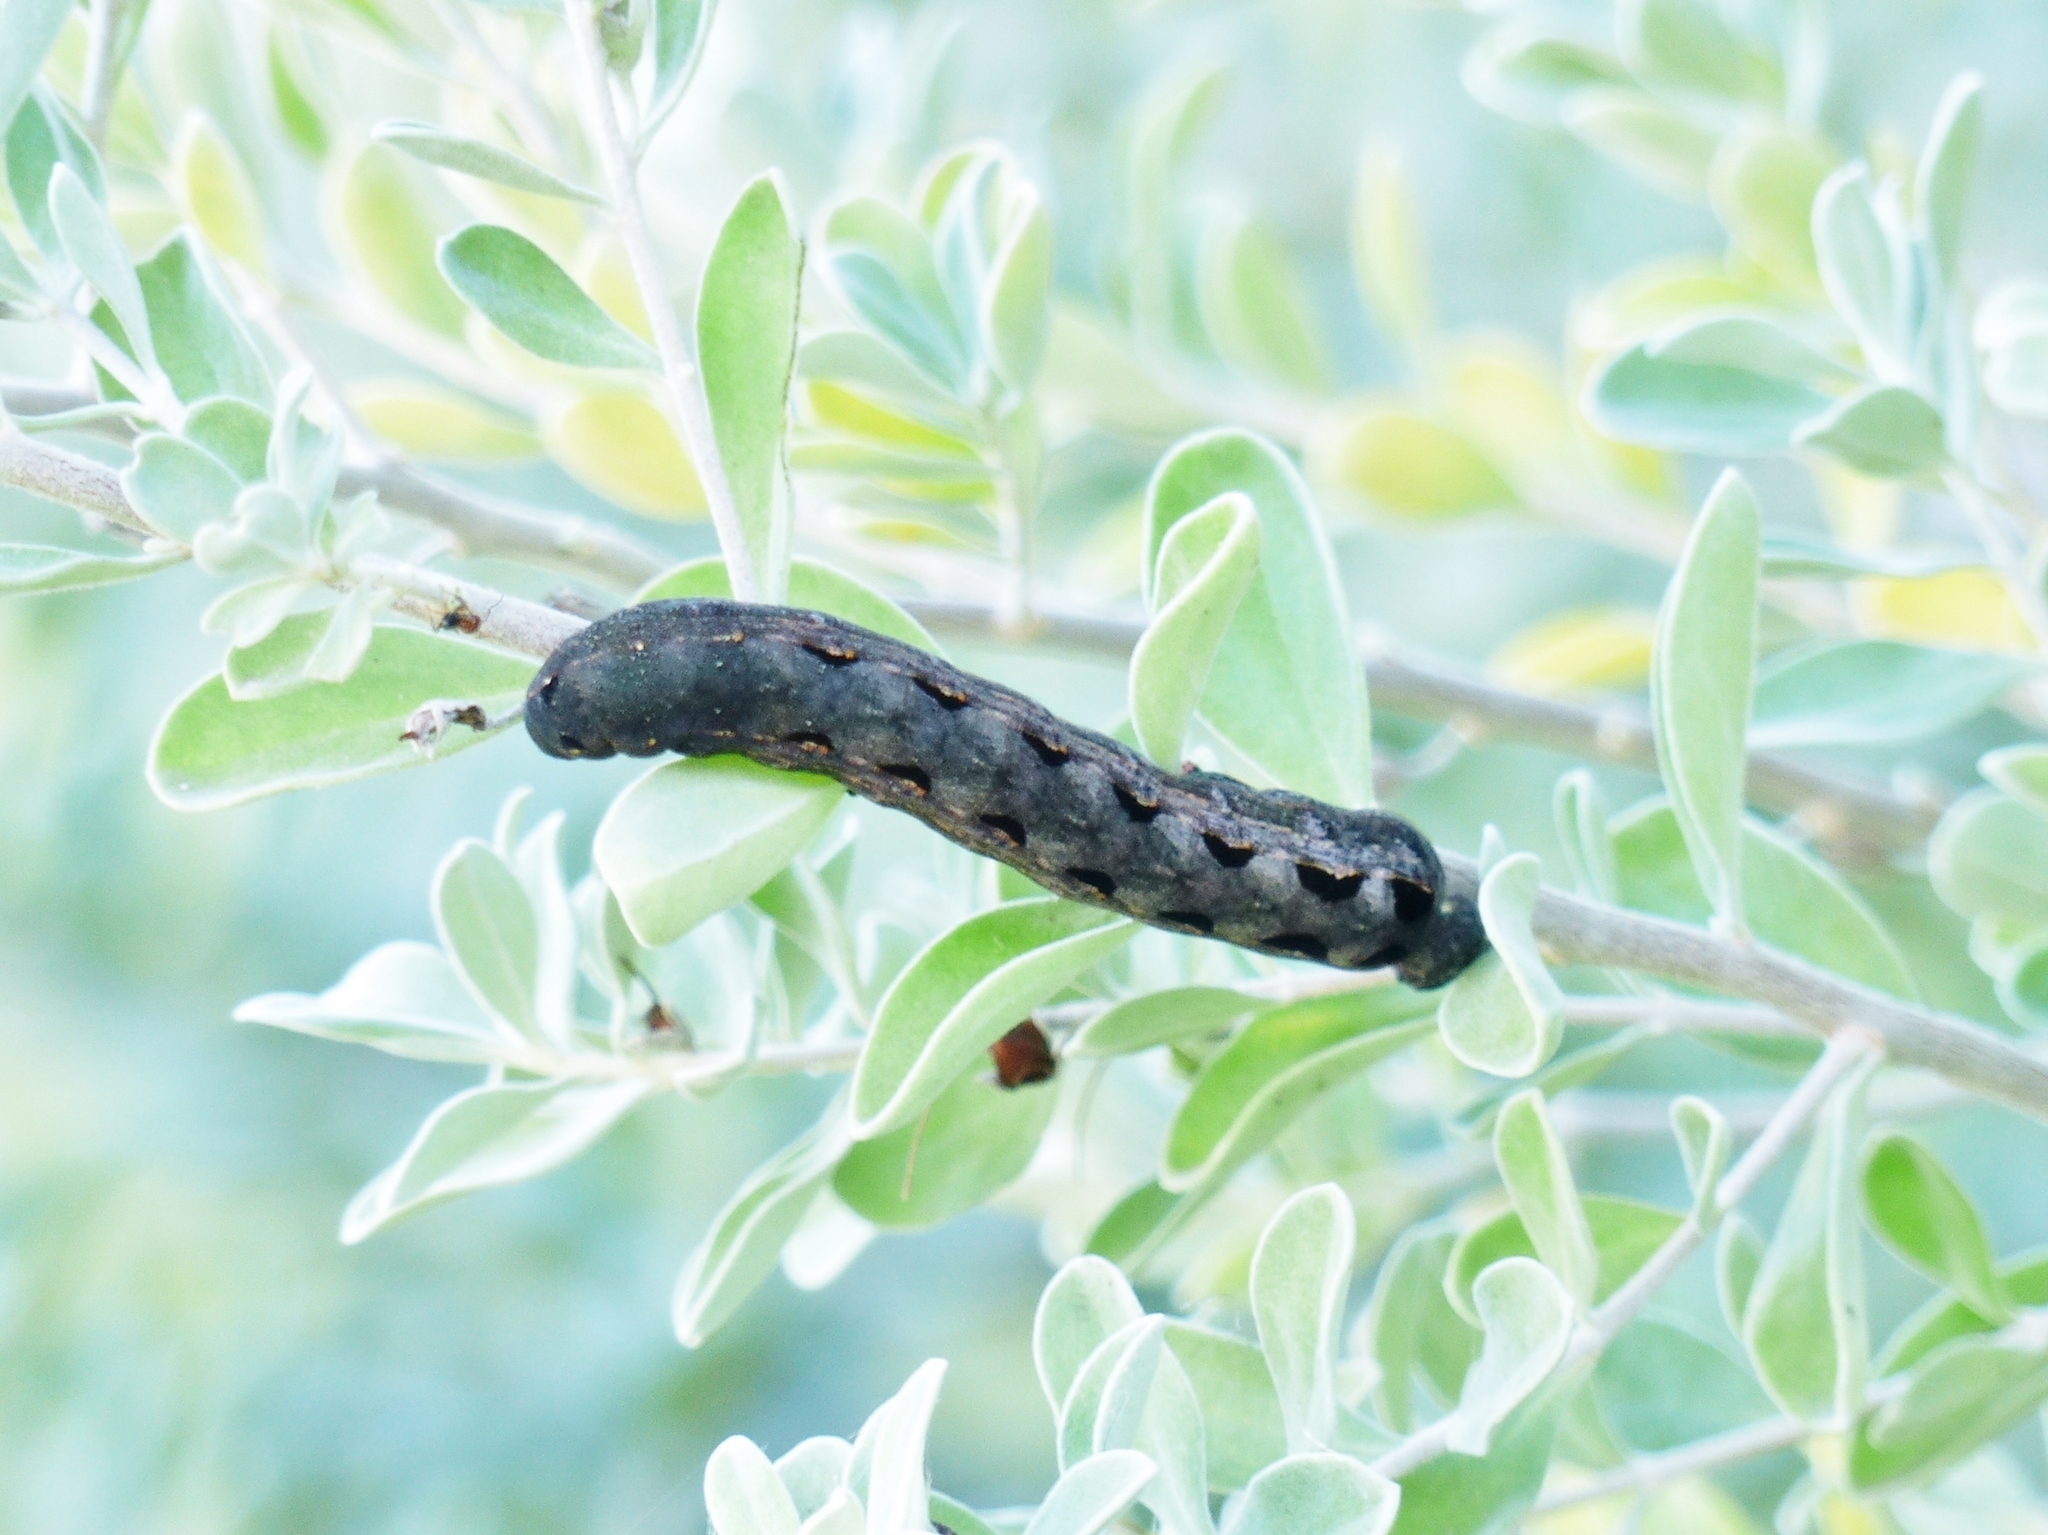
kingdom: Animalia
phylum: Arthropoda
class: Insecta
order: Lepidoptera
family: Noctuidae
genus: Spodoptera
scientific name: Spodoptera ornithogalli
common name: Yellow-striped armyworm
